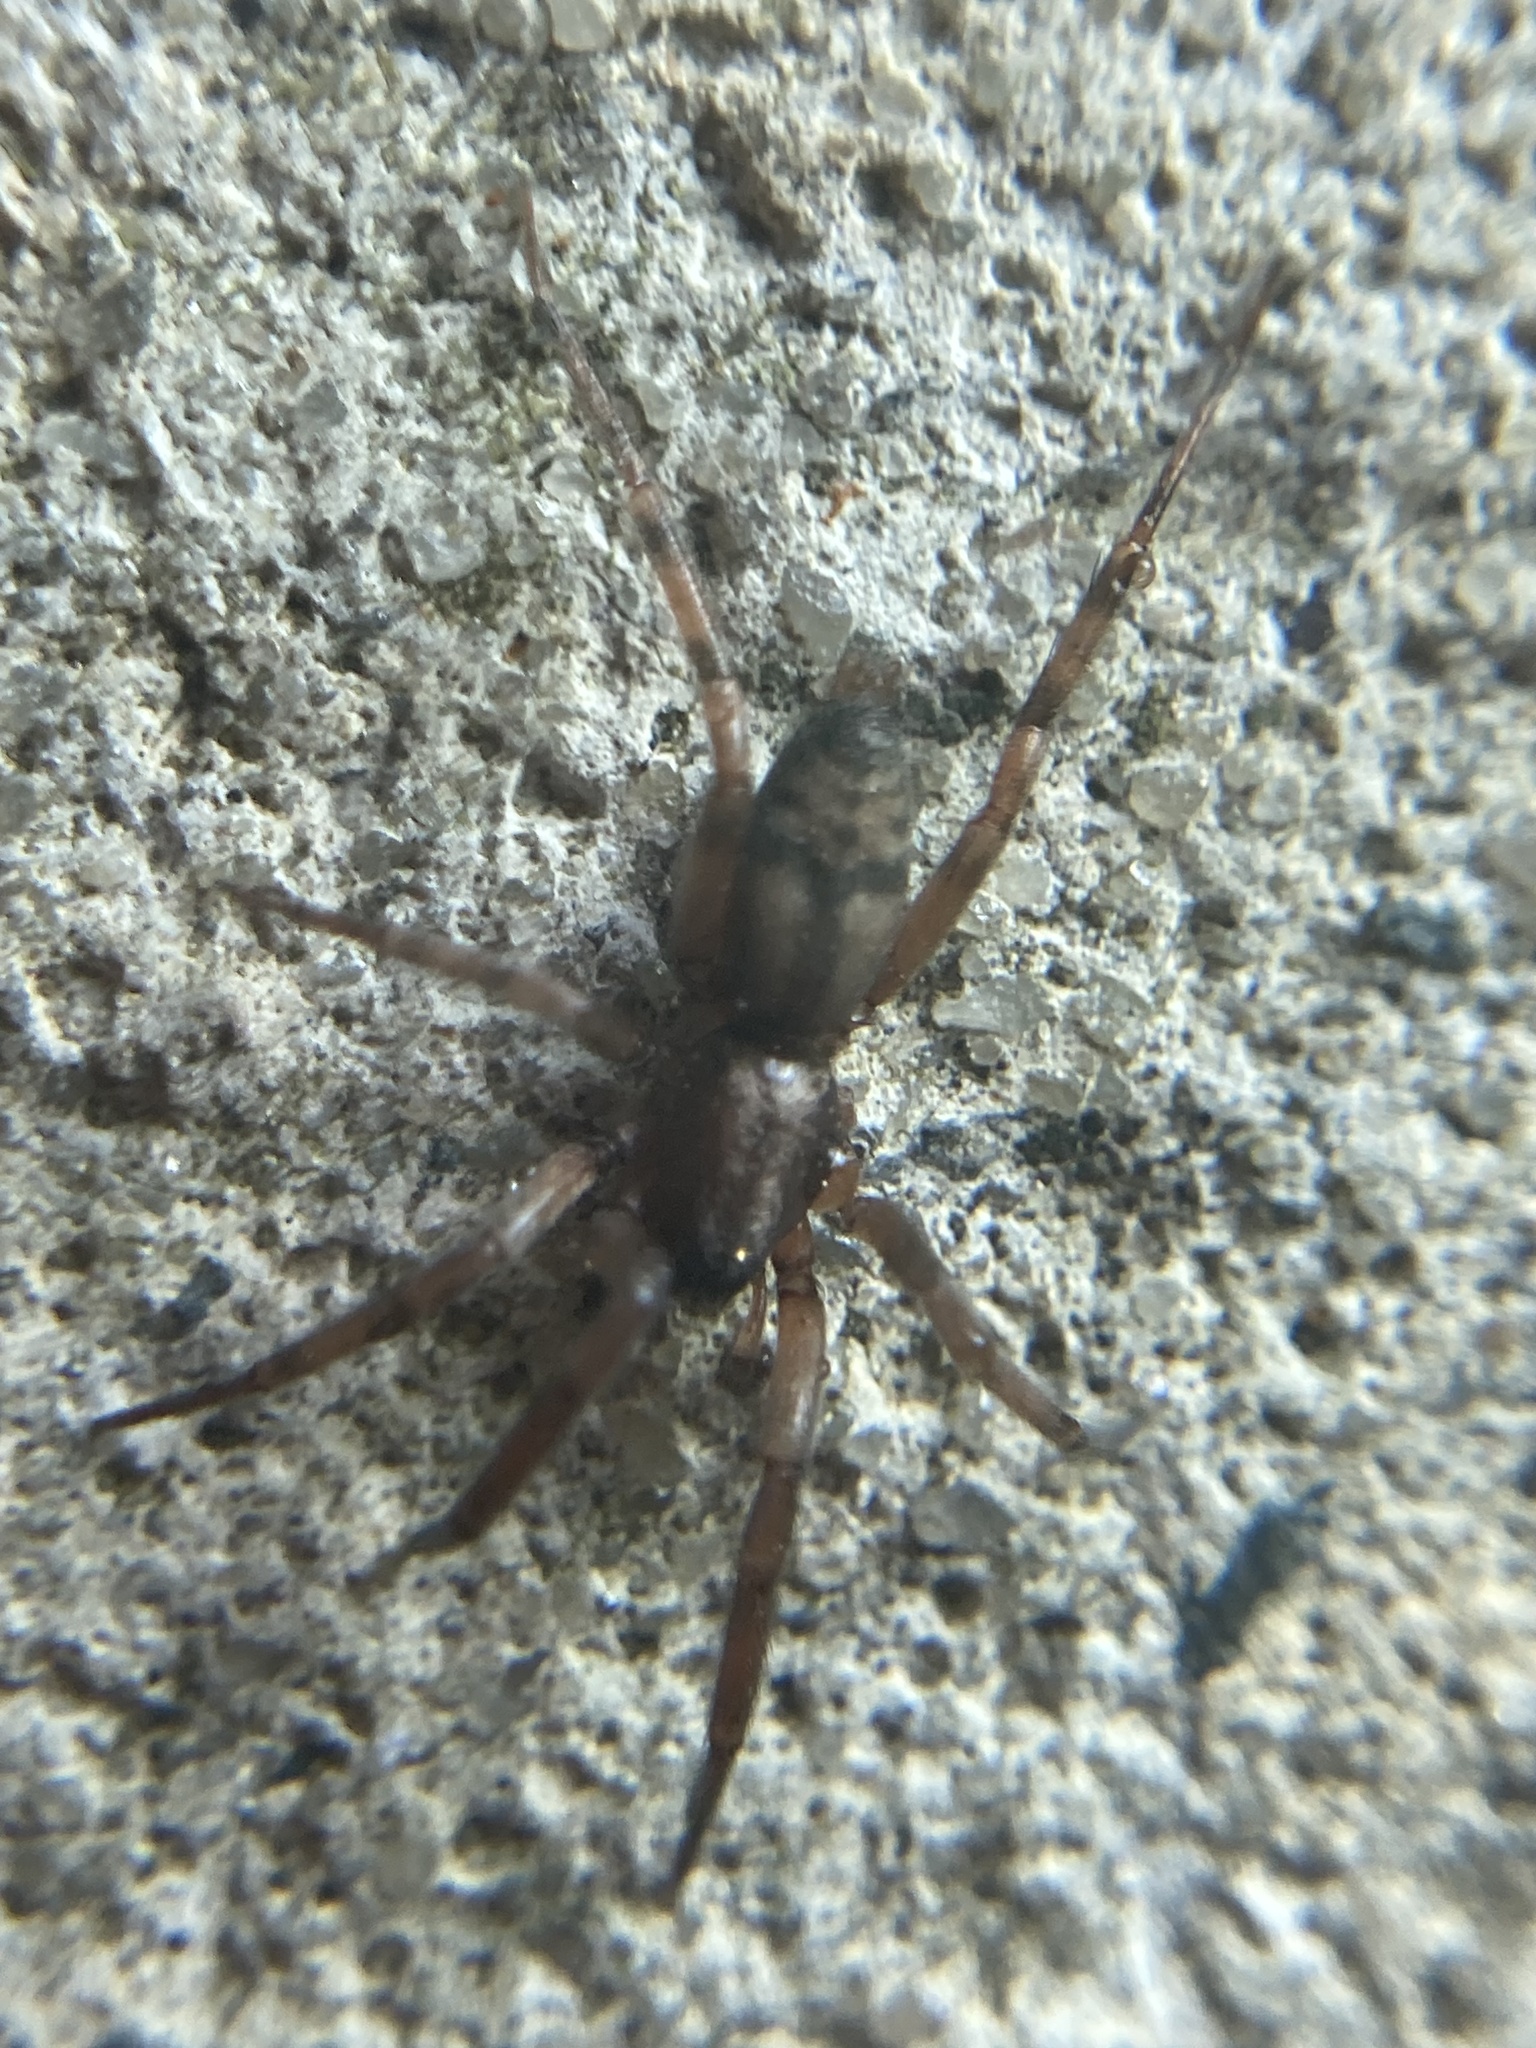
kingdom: Animalia
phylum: Arthropoda
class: Arachnida
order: Araneae
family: Gnaphosidae
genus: Intruda
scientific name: Intruda signata
